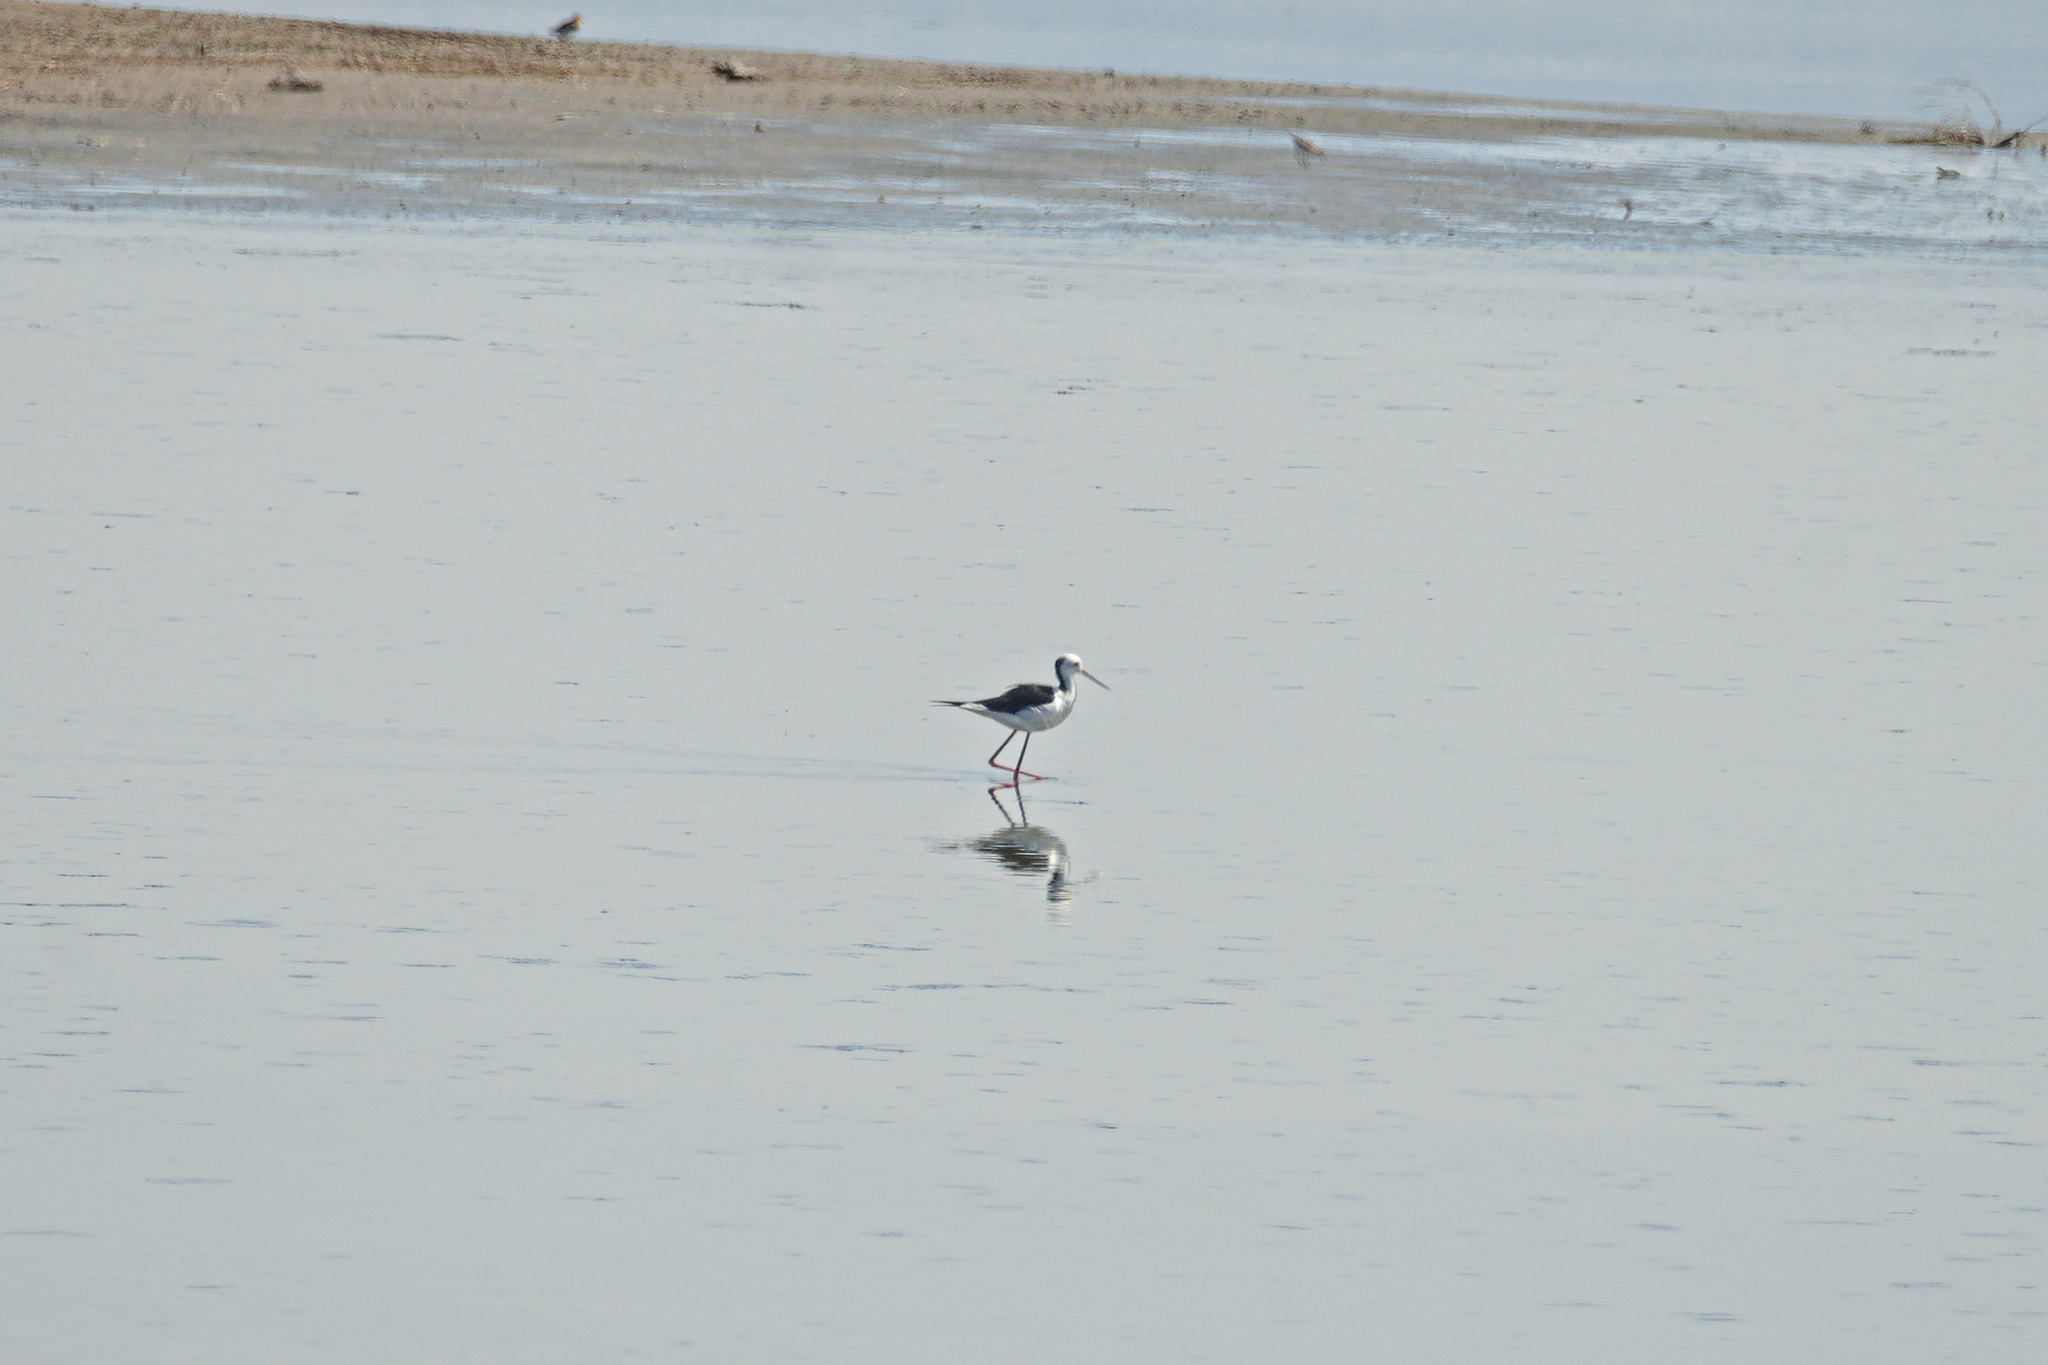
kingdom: Animalia
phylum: Chordata
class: Aves
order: Charadriiformes
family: Recurvirostridae
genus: Himantopus
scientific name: Himantopus himantopus
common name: Black-winged stilt
